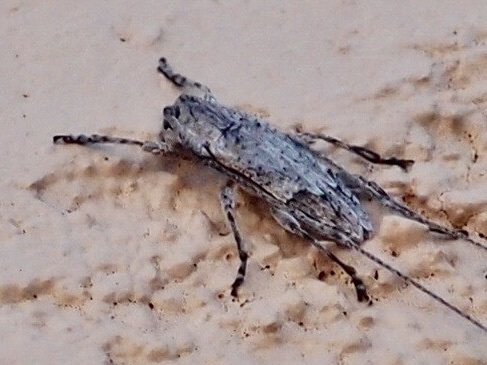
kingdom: Animalia
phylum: Arthropoda
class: Insecta
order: Coleoptera
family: Cerambycidae
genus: Mecotetartus
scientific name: Mecotetartus antennatus
